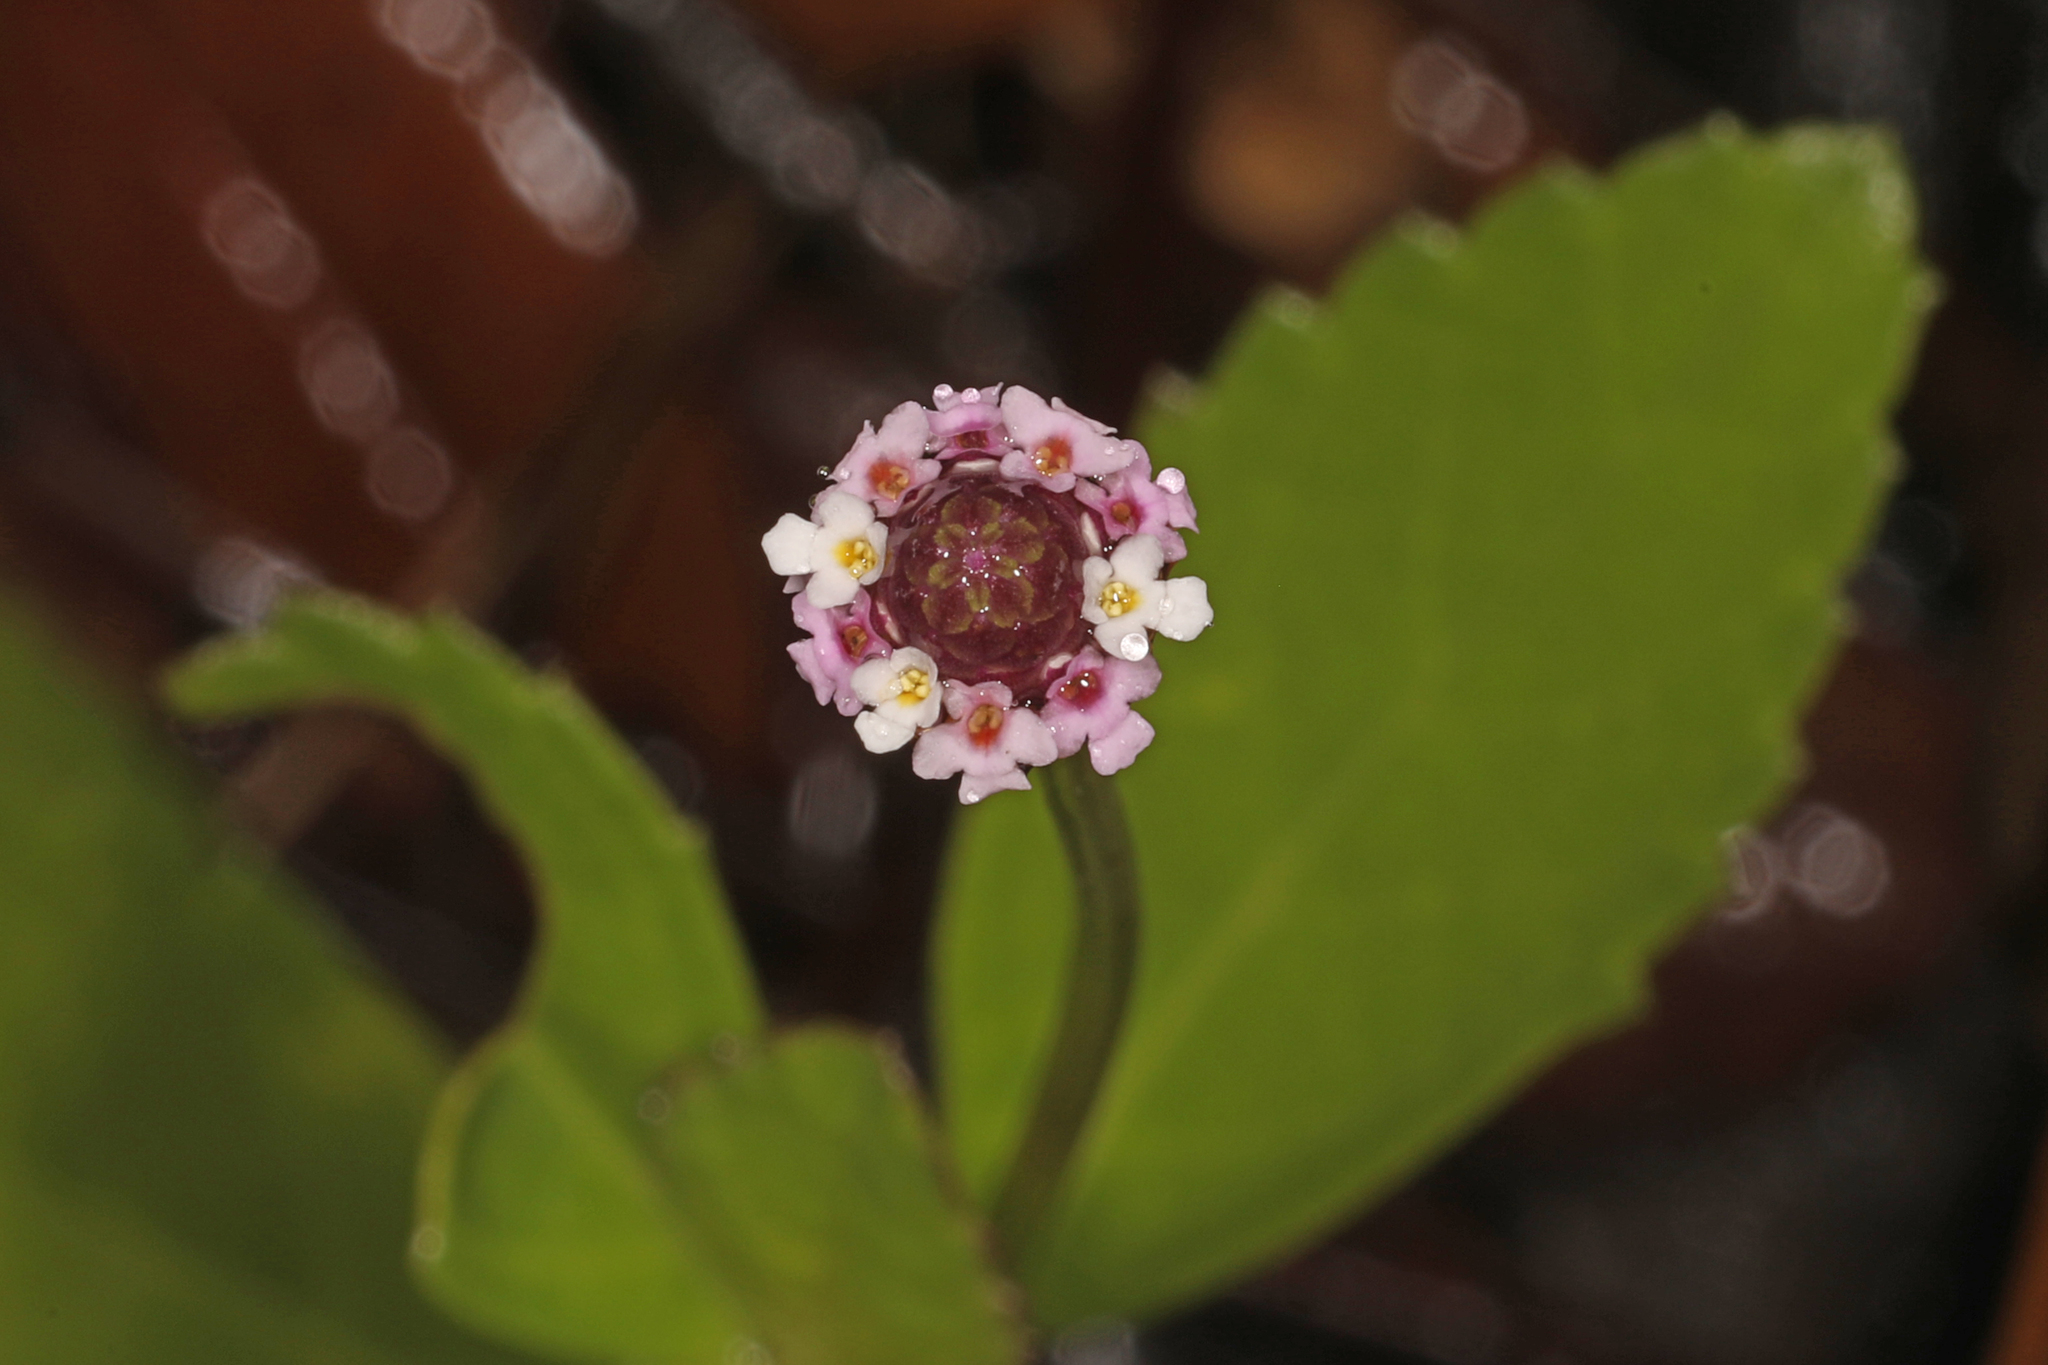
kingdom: Plantae
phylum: Tracheophyta
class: Magnoliopsida
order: Lamiales
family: Verbenaceae
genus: Phyla
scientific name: Phyla nodiflora
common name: Frogfruit
